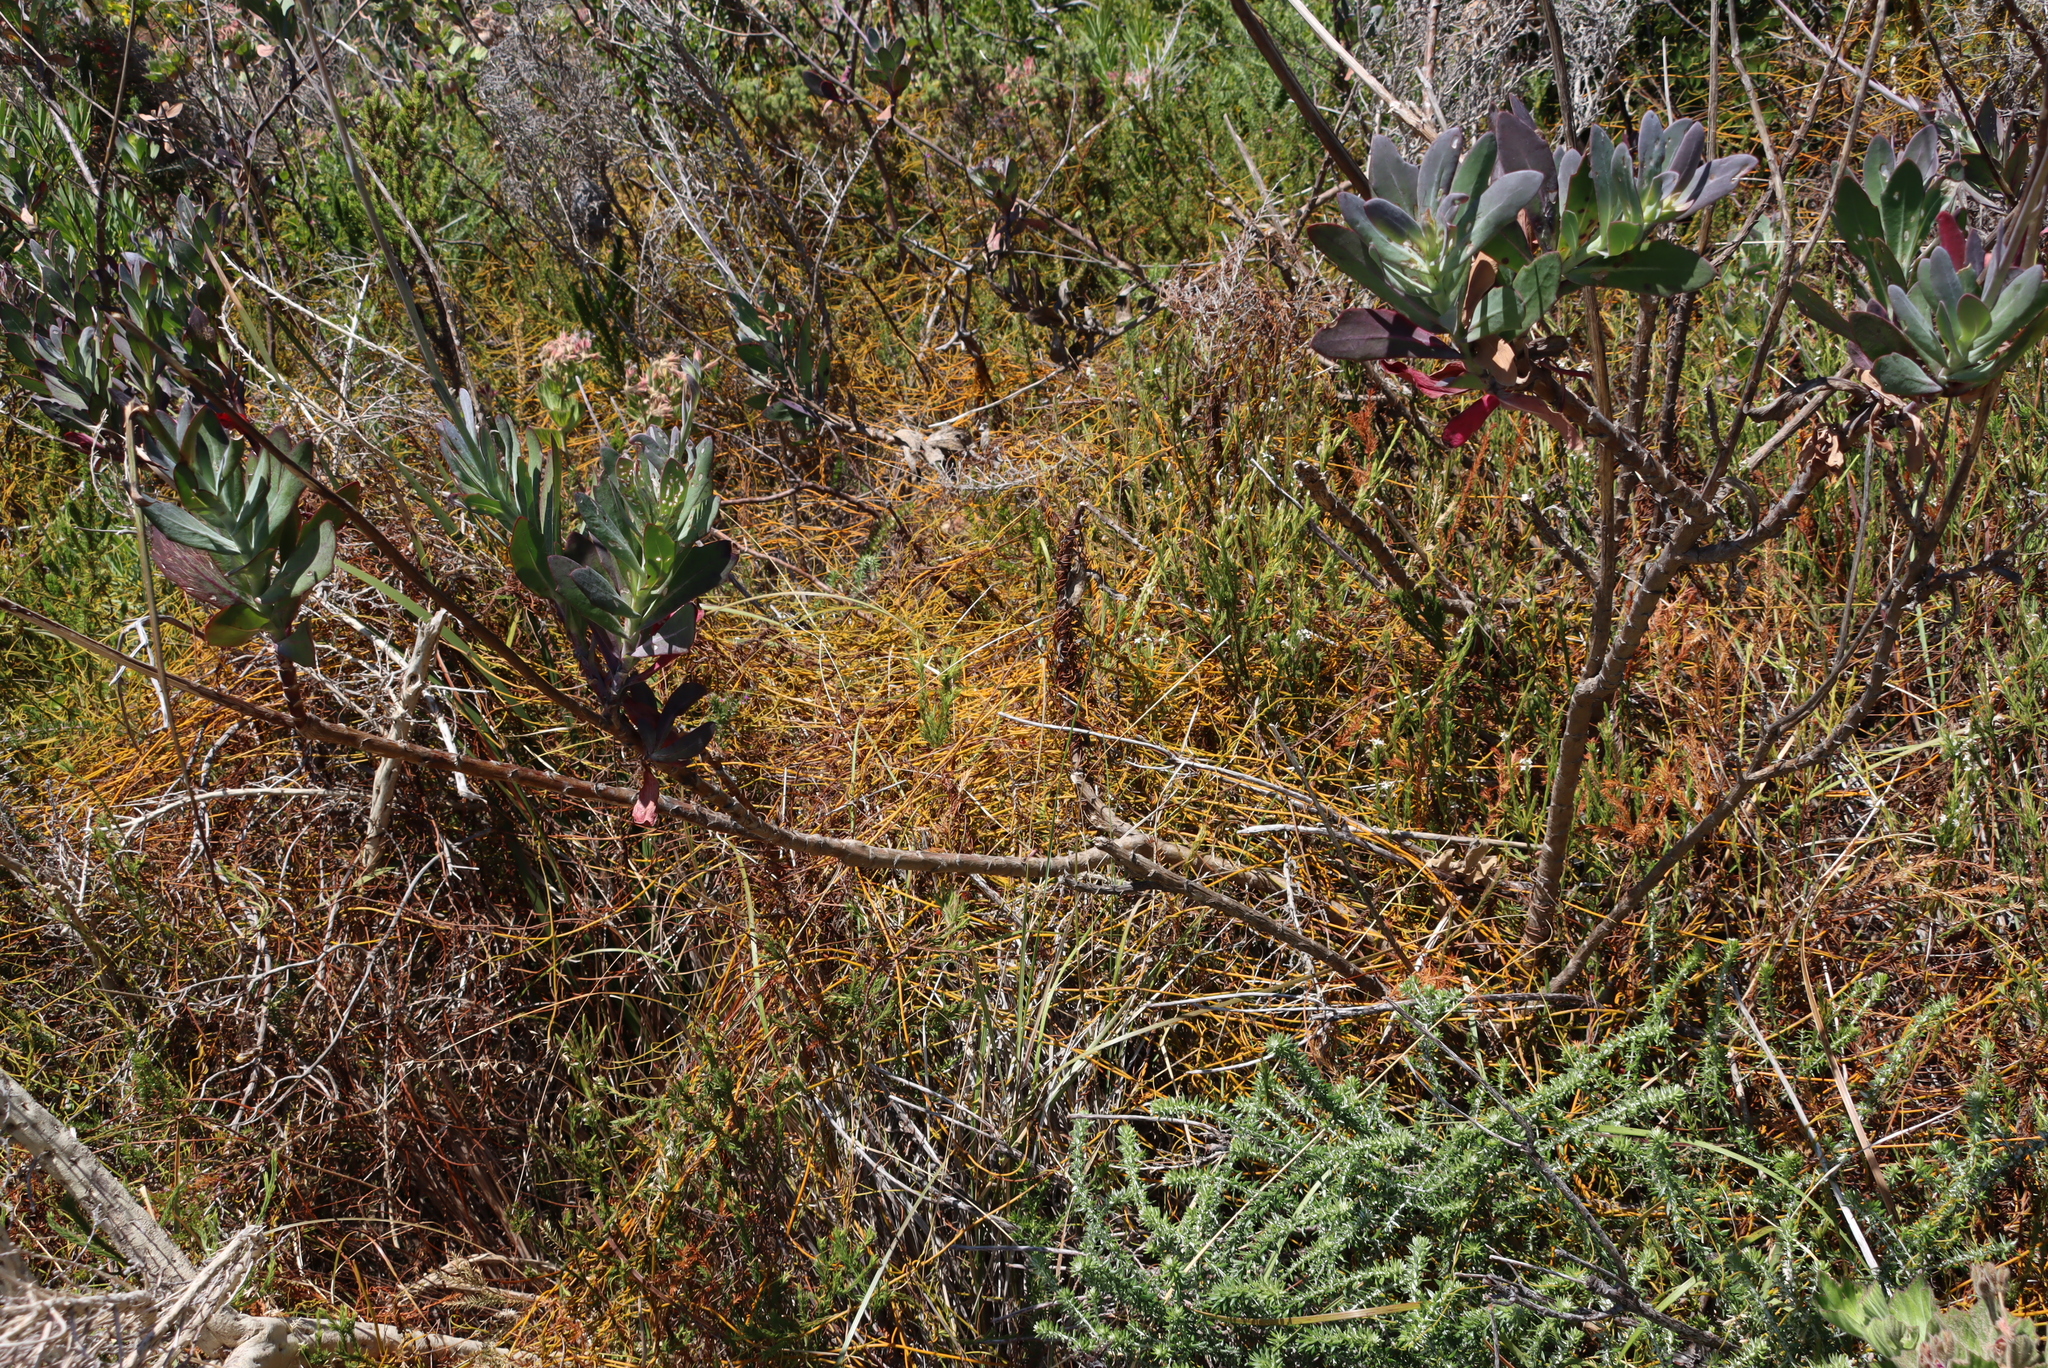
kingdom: Plantae
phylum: Tracheophyta
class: Magnoliopsida
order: Asterales
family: Asteraceae
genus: Othonna
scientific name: Othonna quinquedentata
